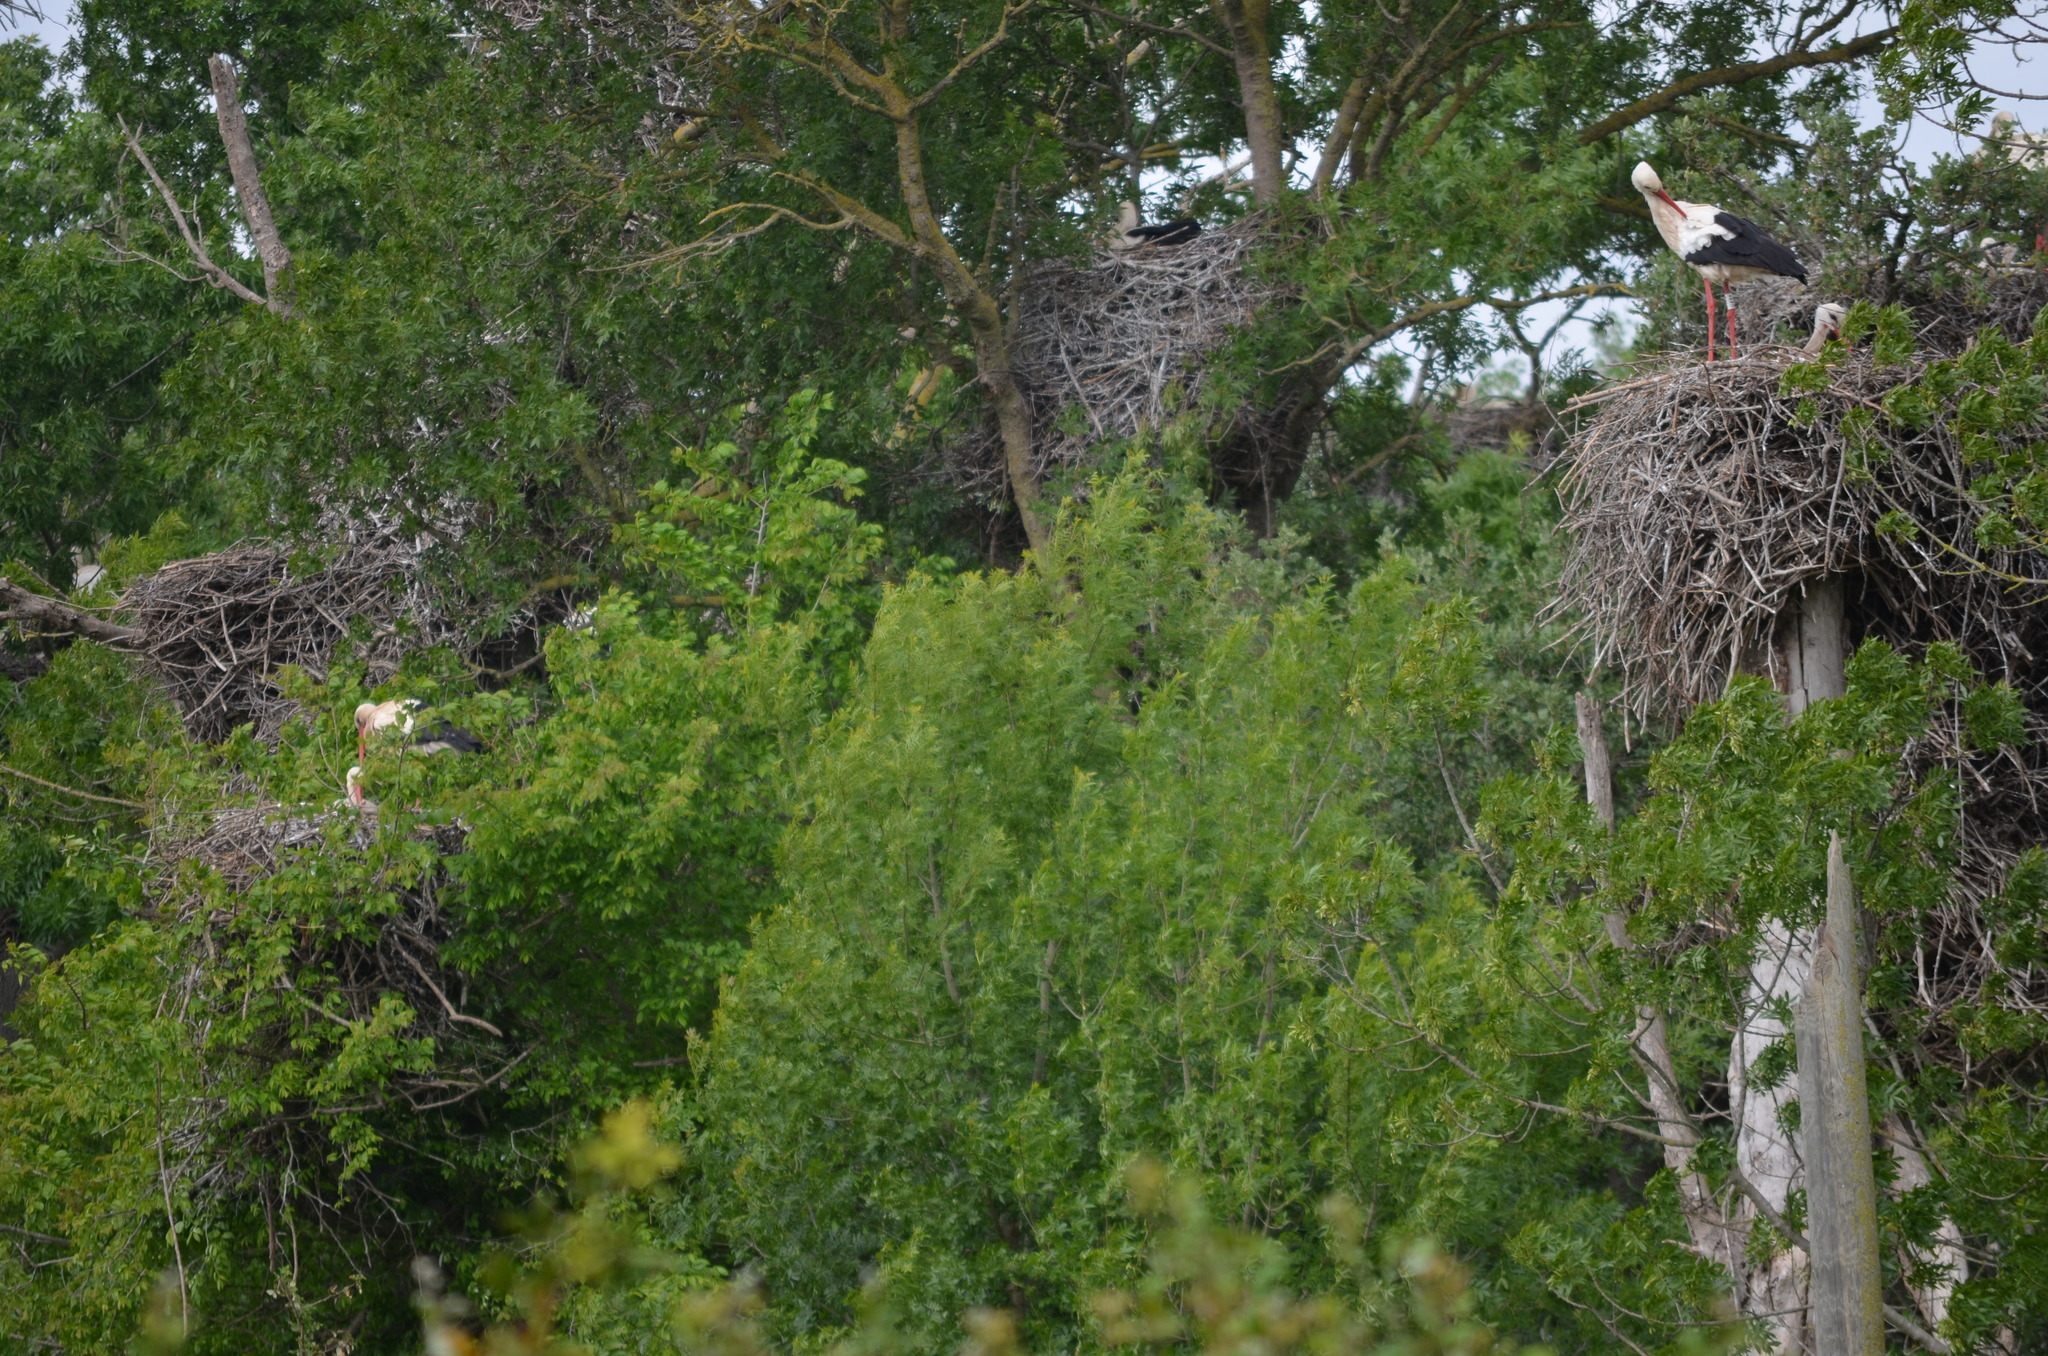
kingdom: Animalia
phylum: Chordata
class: Aves
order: Ciconiiformes
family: Ciconiidae
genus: Ciconia
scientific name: Ciconia ciconia
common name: White stork
